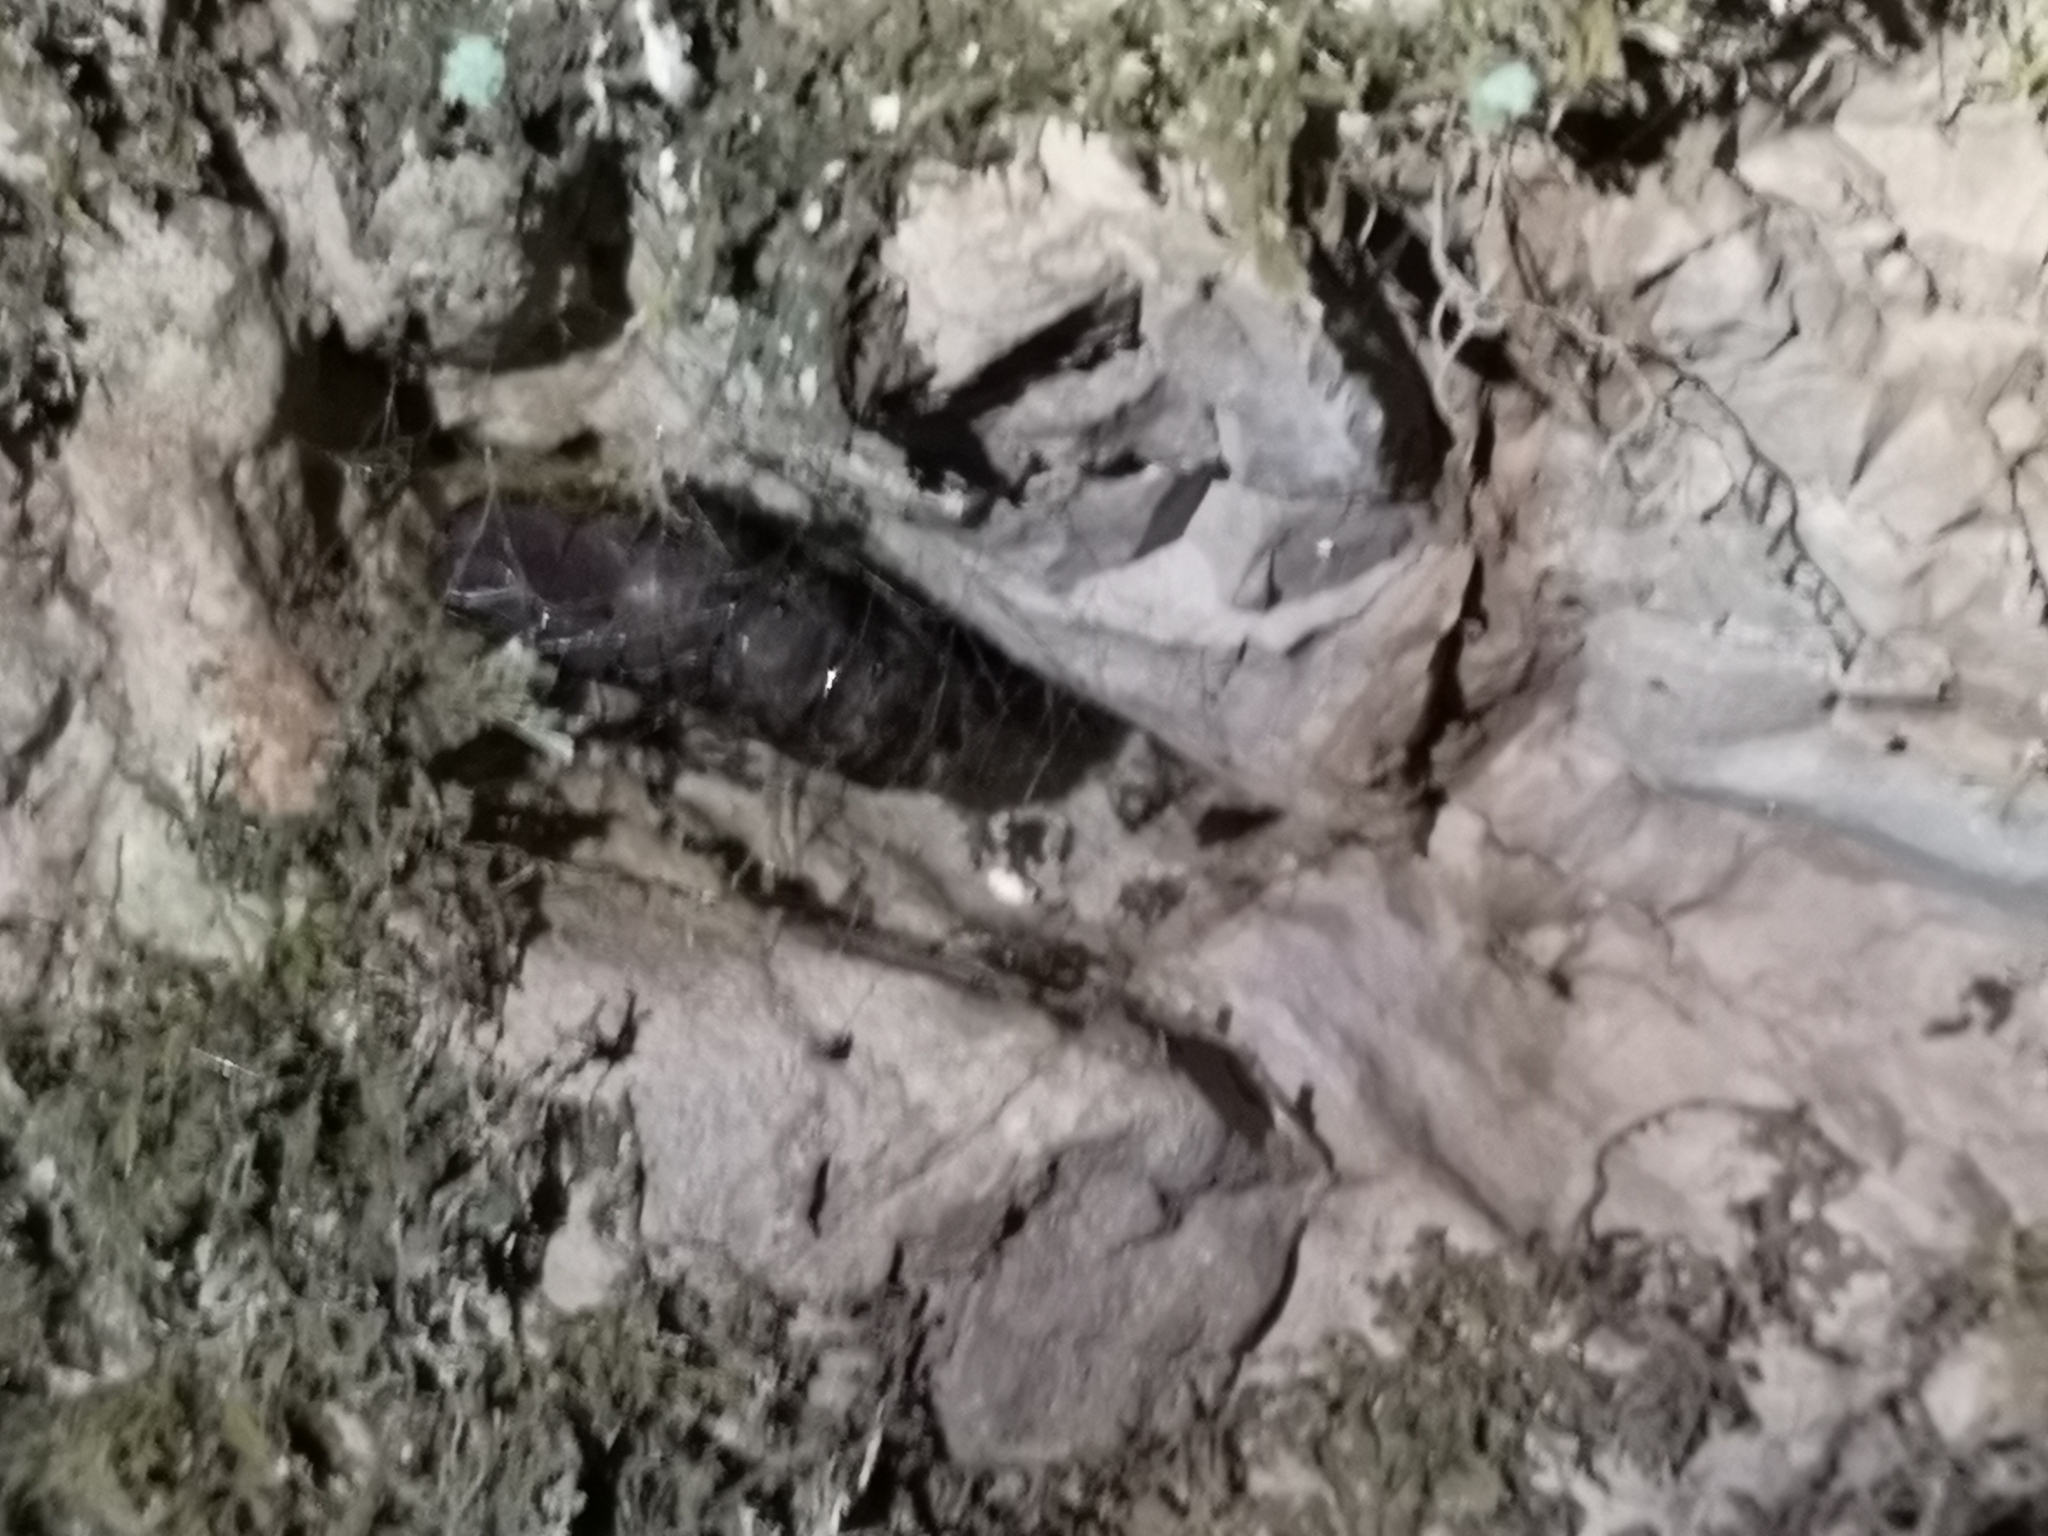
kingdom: Animalia
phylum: Arthropoda
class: Insecta
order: Lepidoptera
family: Erebidae
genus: Lymantria
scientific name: Lymantria dispar
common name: Gypsy moth
